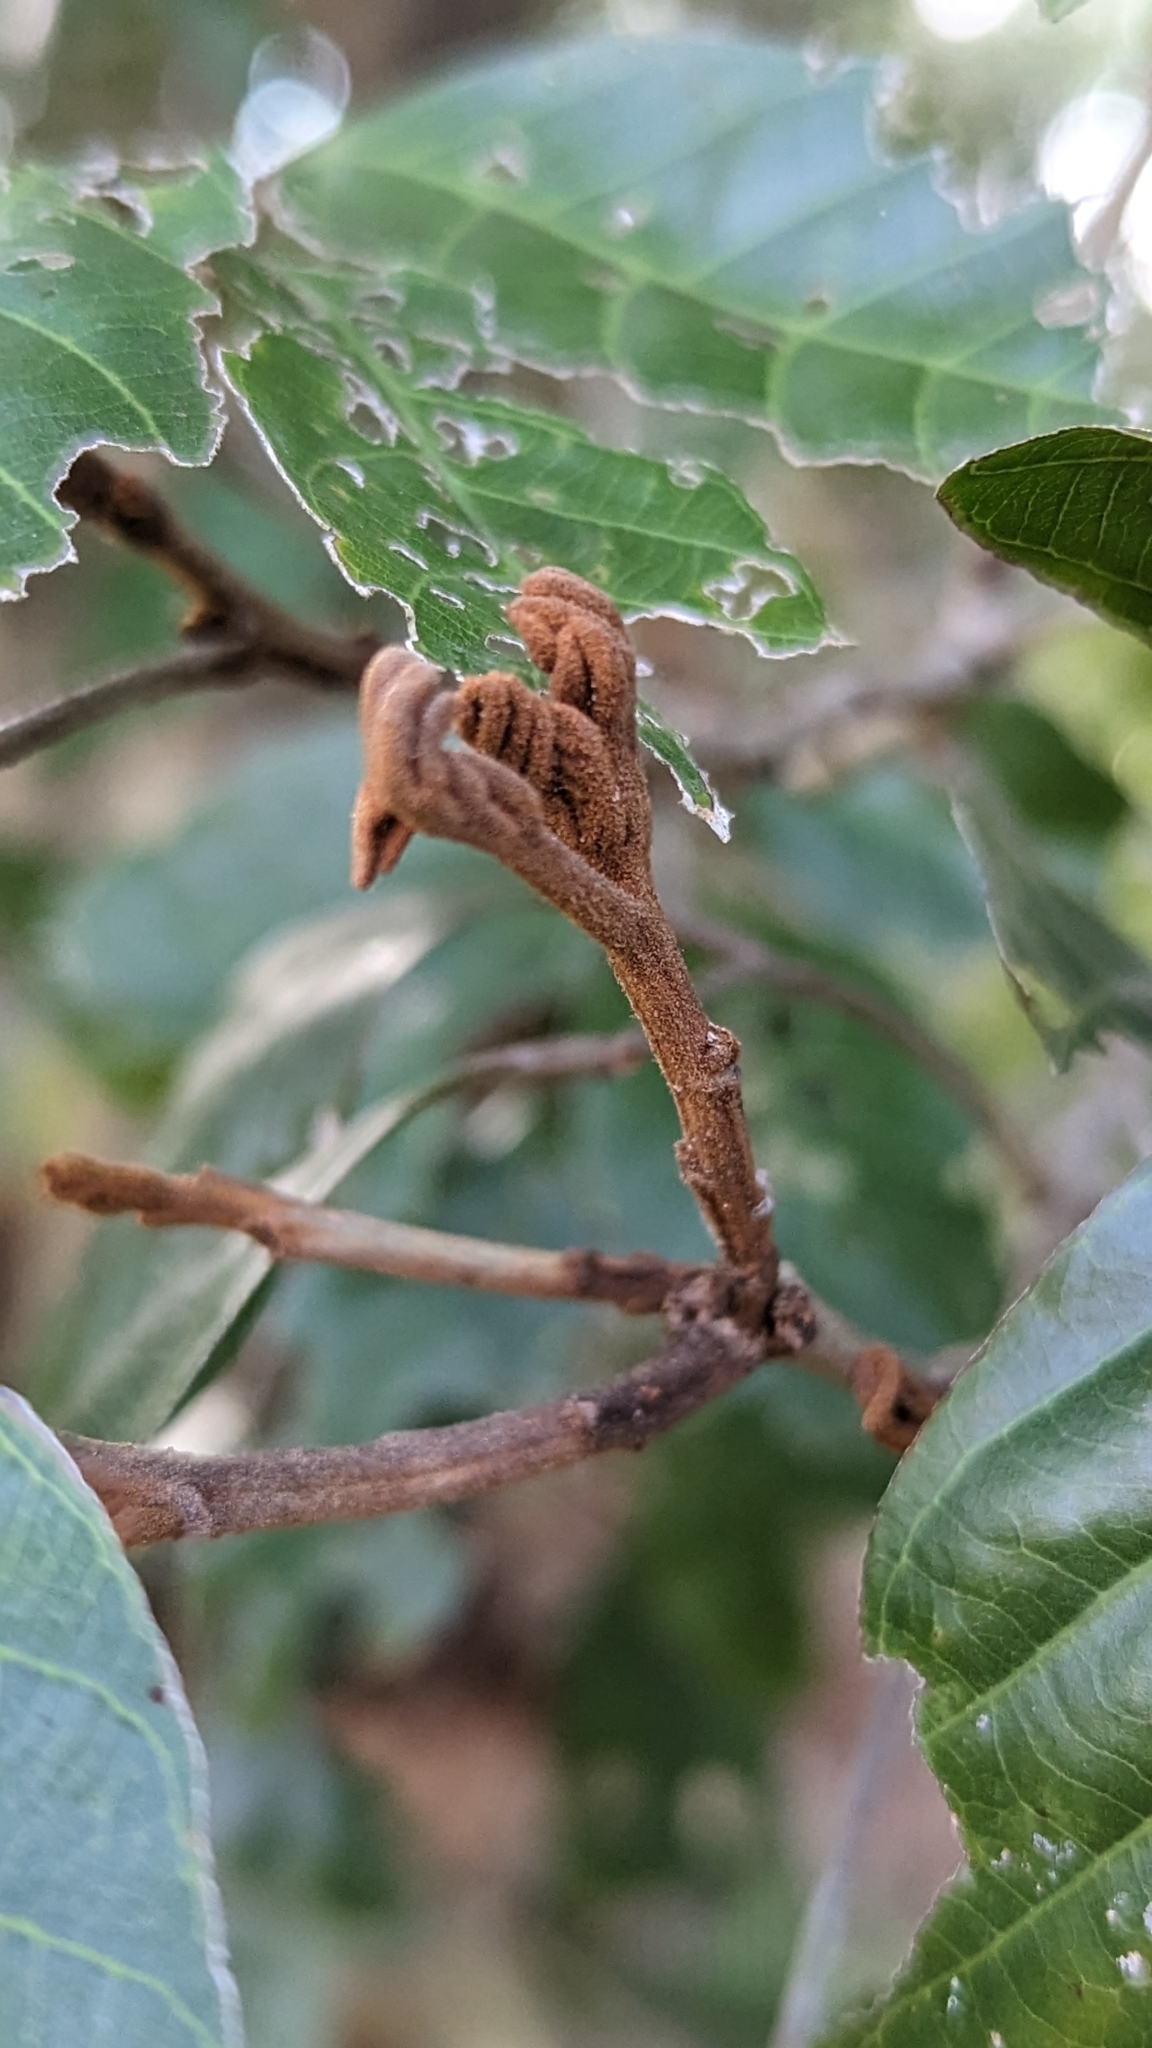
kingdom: Plantae
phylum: Tracheophyta
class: Magnoliopsida
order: Sapindales
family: Sapindaceae
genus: Arytera
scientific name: Arytera foveolata
